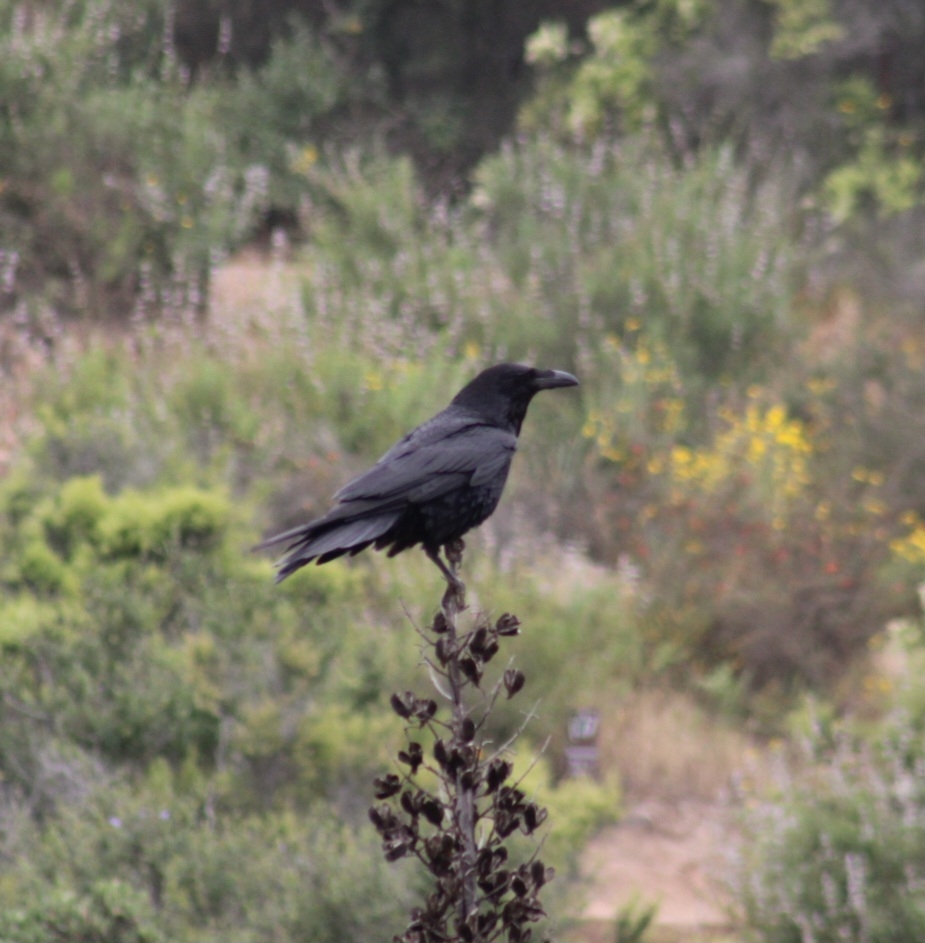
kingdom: Animalia
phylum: Chordata
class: Aves
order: Passeriformes
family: Corvidae
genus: Corvus
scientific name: Corvus corax
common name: Common raven
